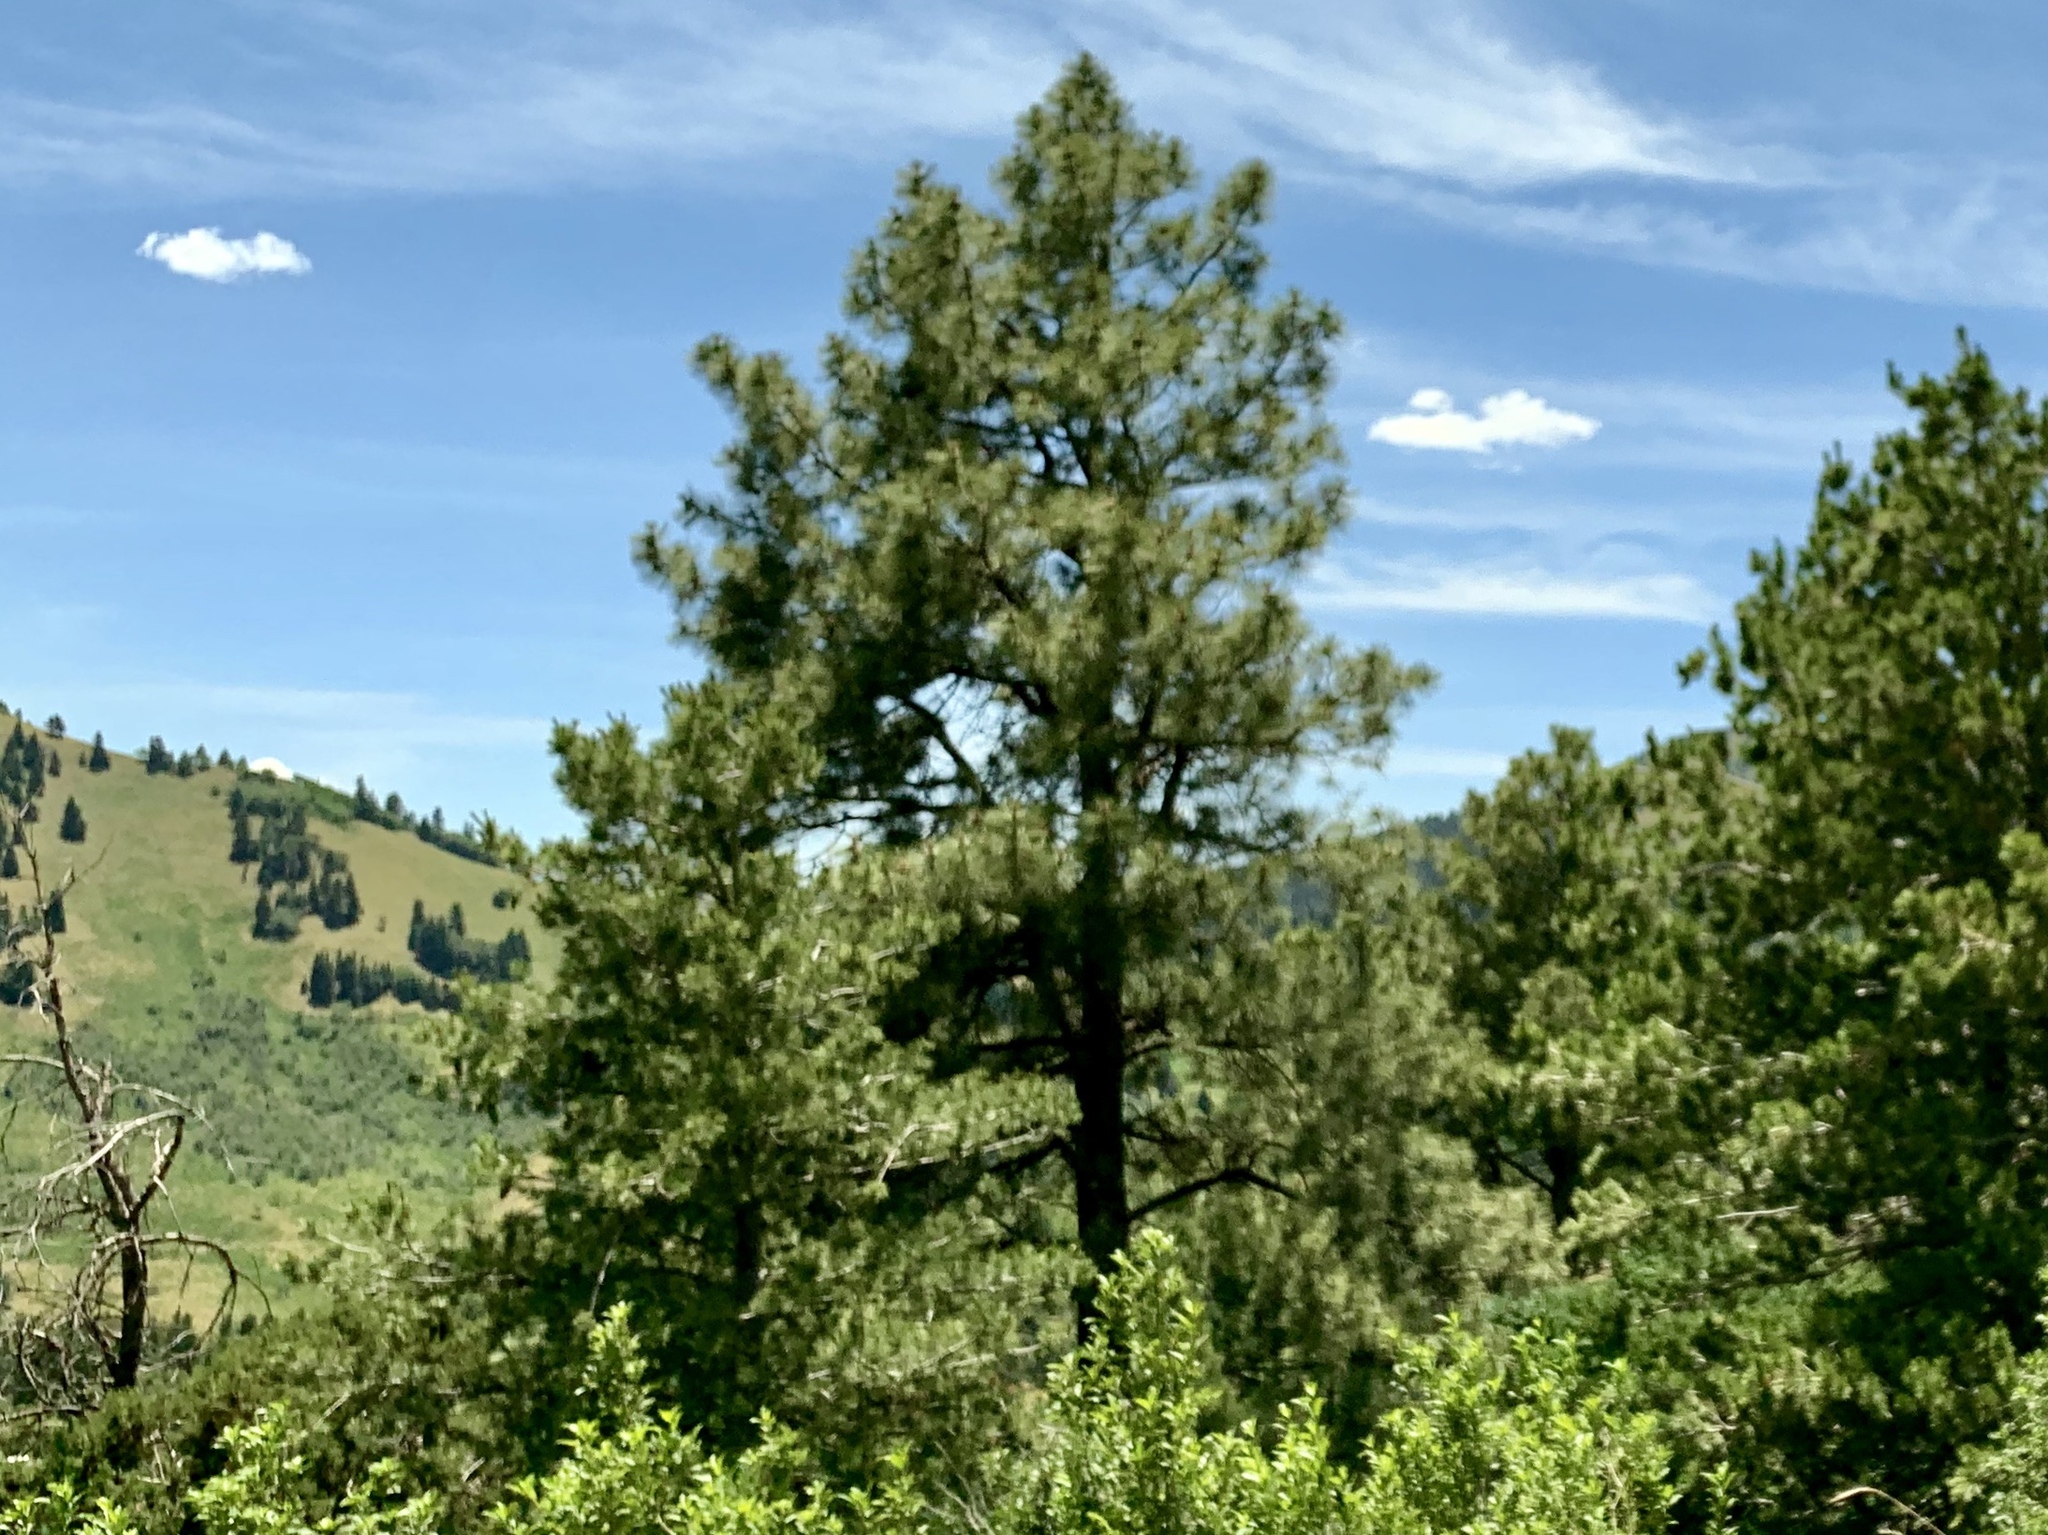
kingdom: Plantae
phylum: Tracheophyta
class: Pinopsida
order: Pinales
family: Pinaceae
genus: Pinus
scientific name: Pinus ponderosa
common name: Western yellow-pine
